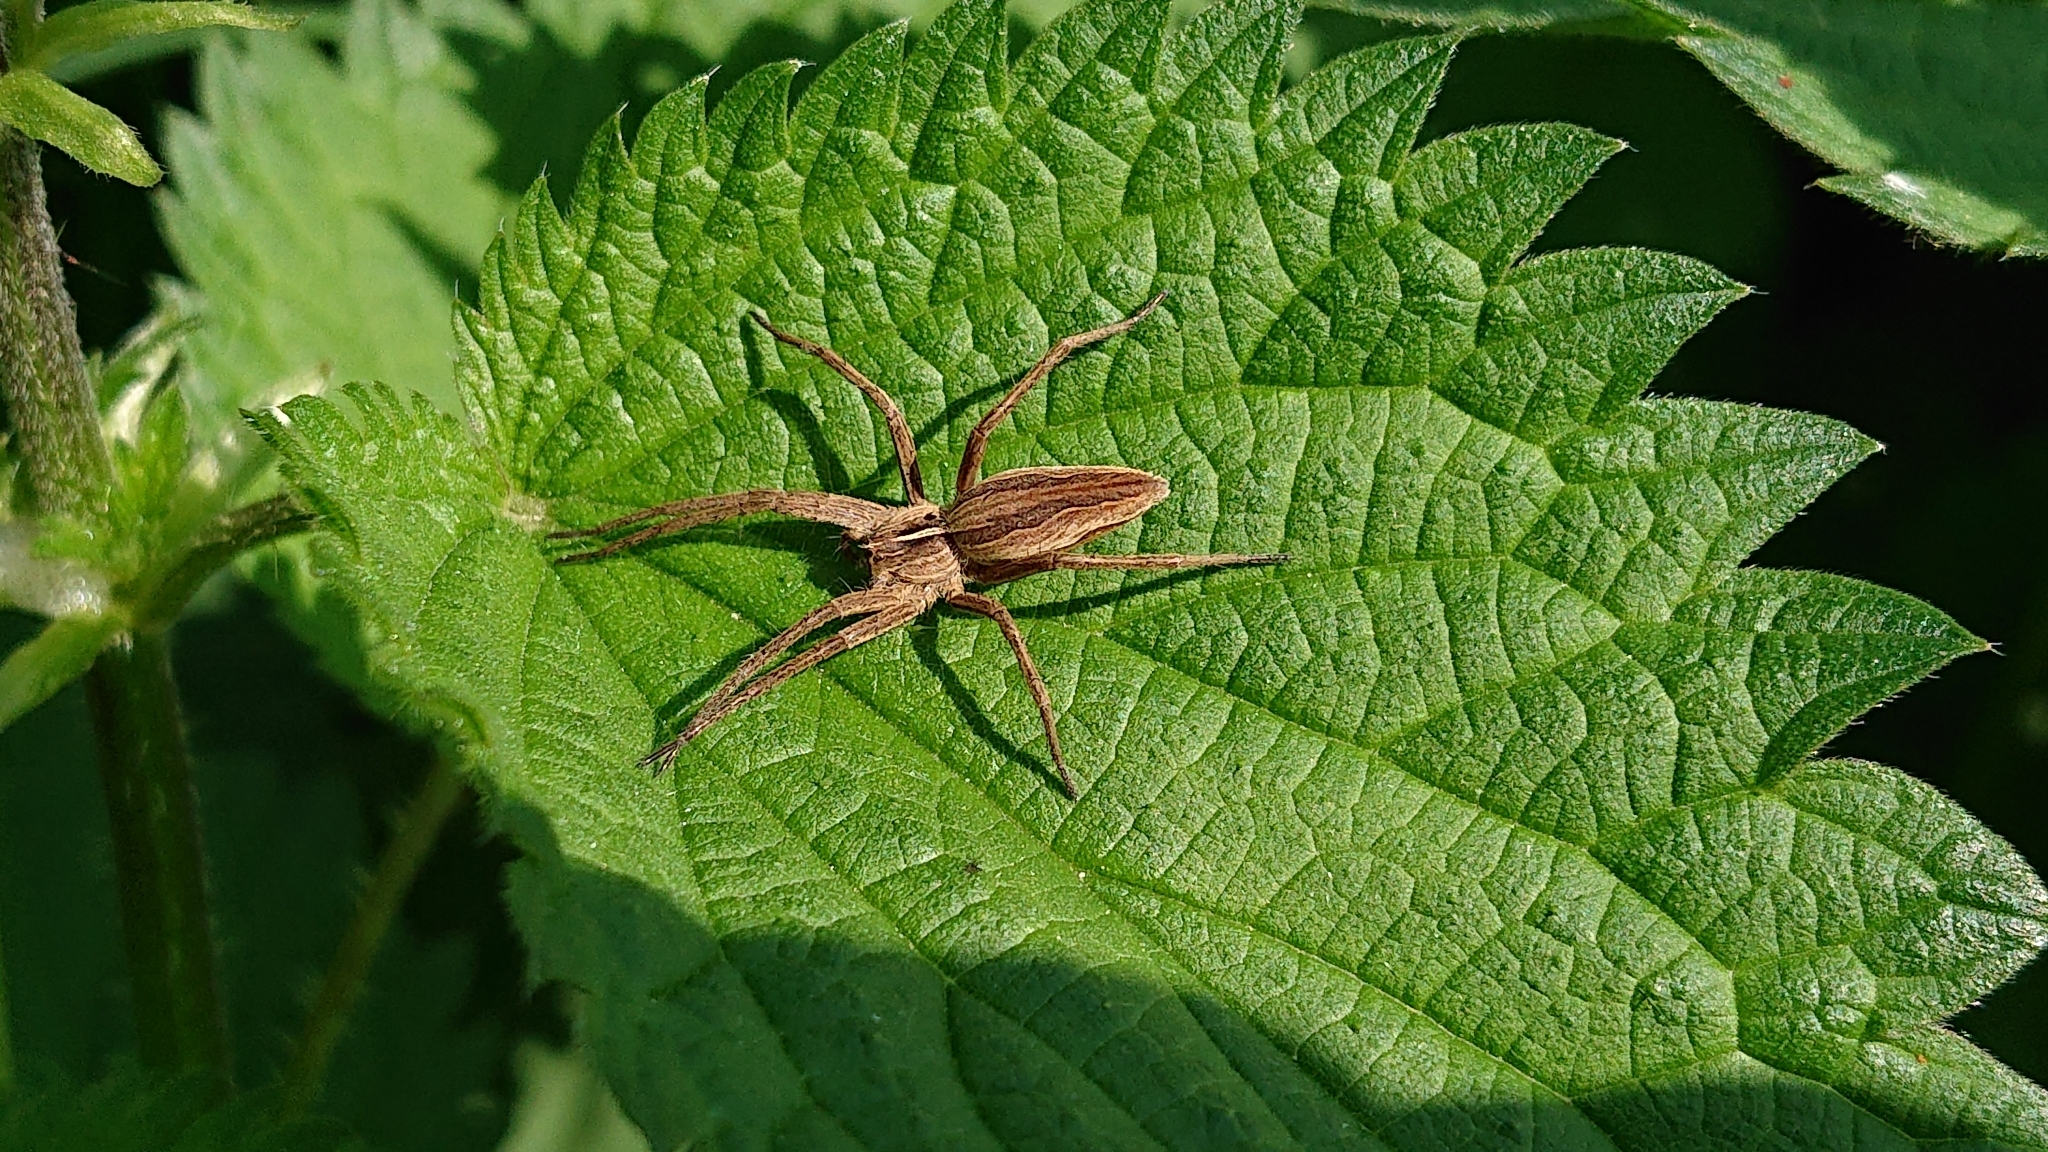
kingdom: Animalia
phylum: Arthropoda
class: Arachnida
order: Araneae
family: Pisauridae
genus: Pisaura
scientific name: Pisaura mirabilis
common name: Tent spider
